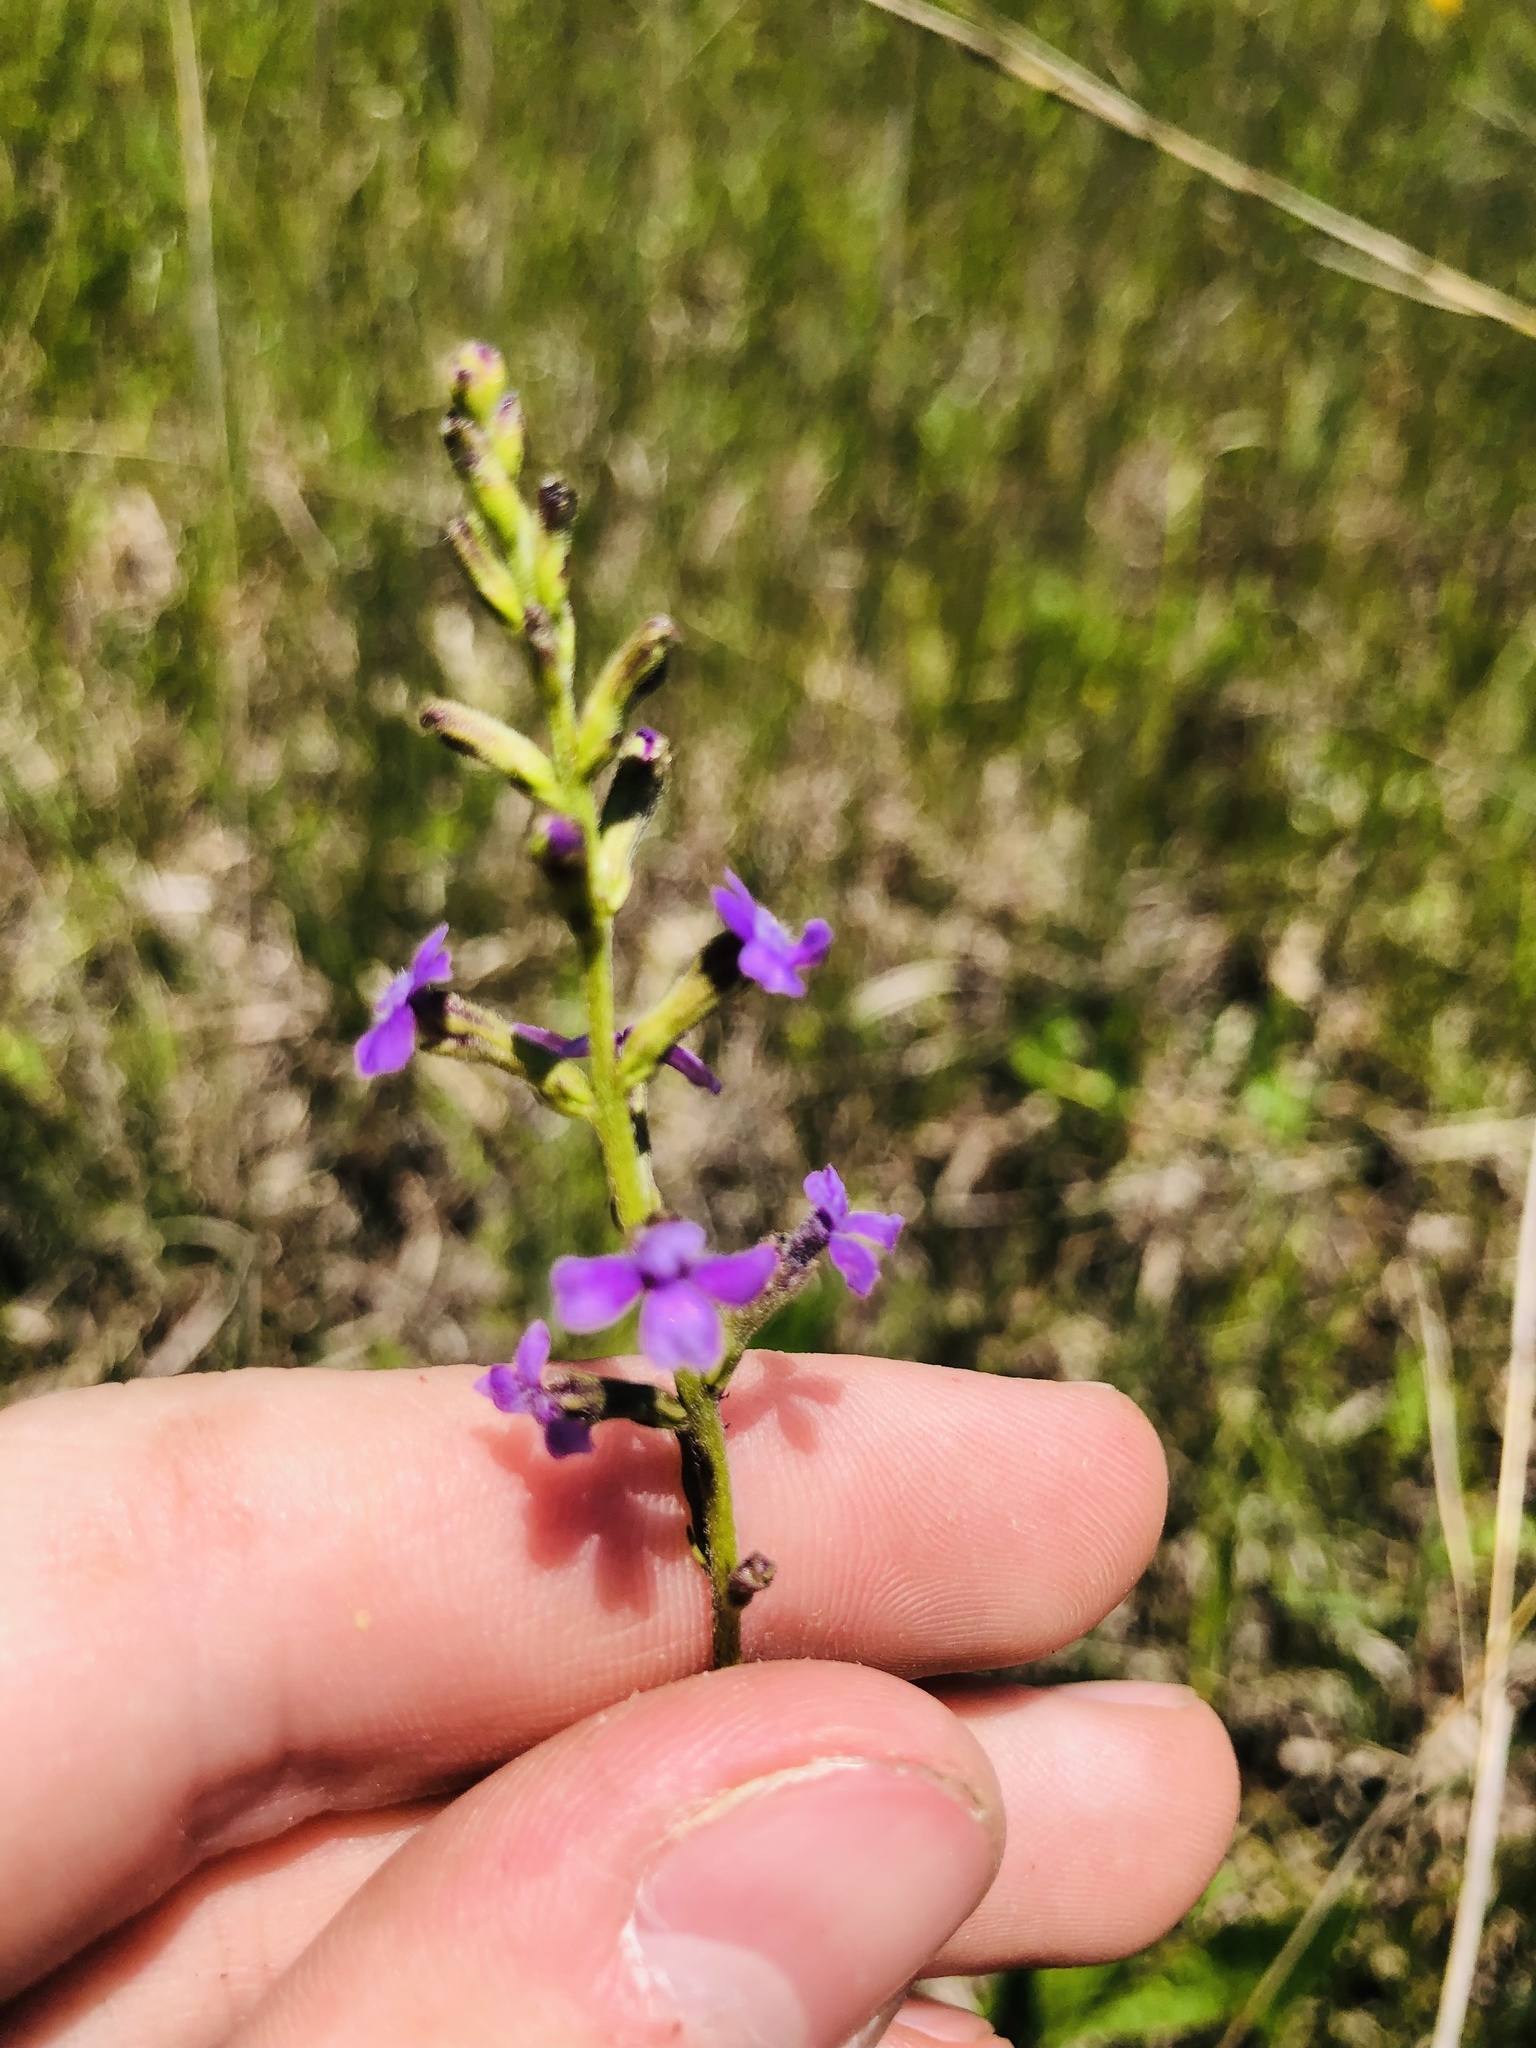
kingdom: Plantae
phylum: Tracheophyta
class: Magnoliopsida
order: Lamiales
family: Orobanchaceae
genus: Buchnera
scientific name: Buchnera floridana
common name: Florida bluehearts
